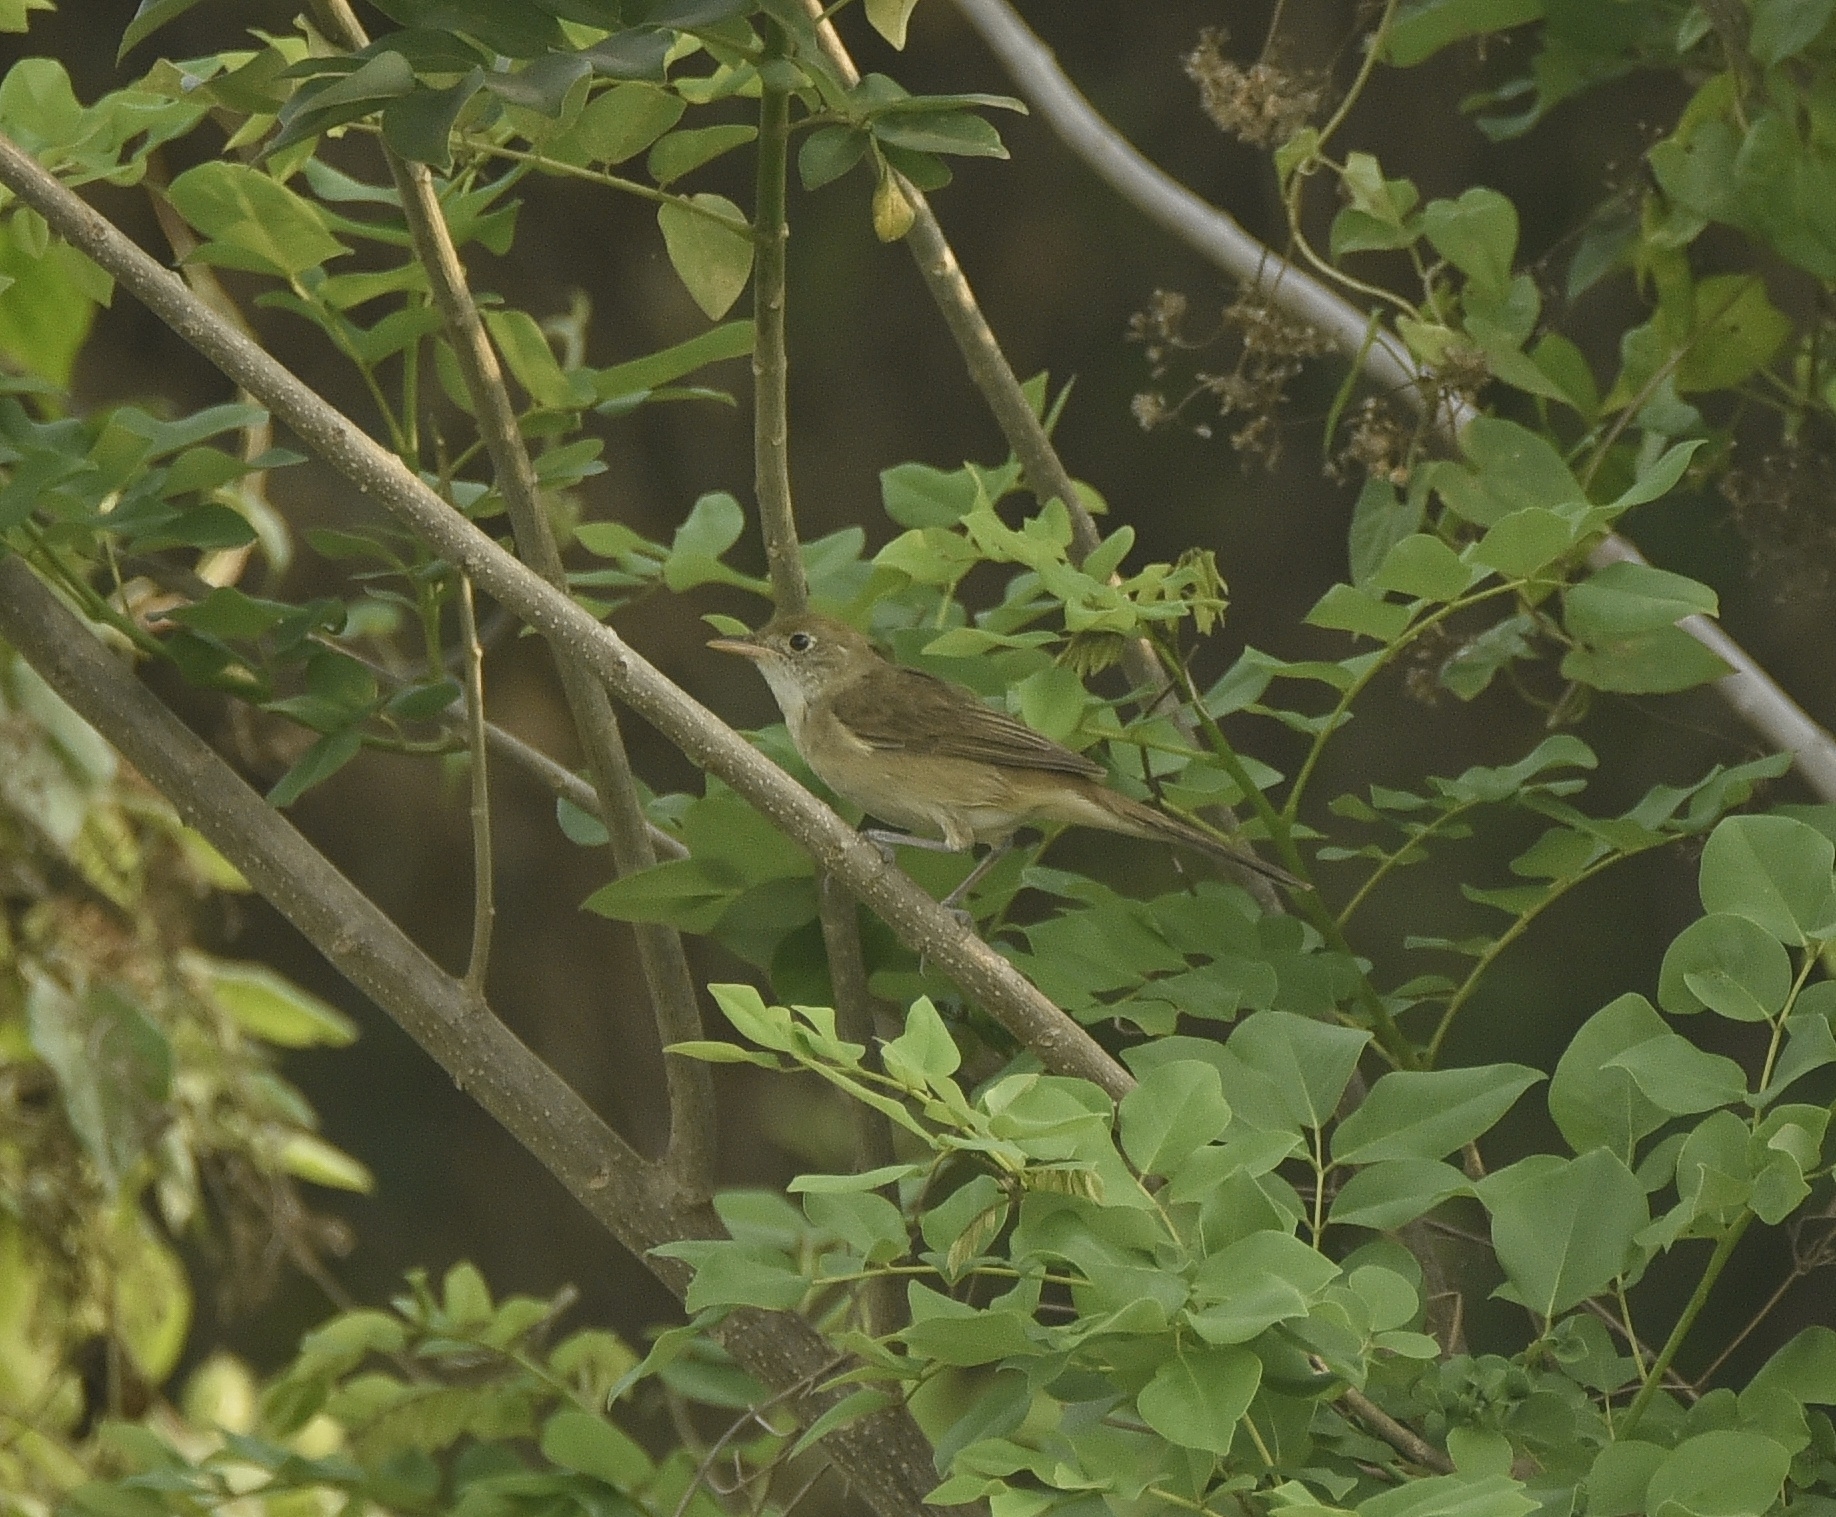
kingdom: Animalia
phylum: Chordata
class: Aves
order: Passeriformes
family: Acrocephalidae
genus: Iduna
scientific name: Iduna aedon
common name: Thick-billed warbler
